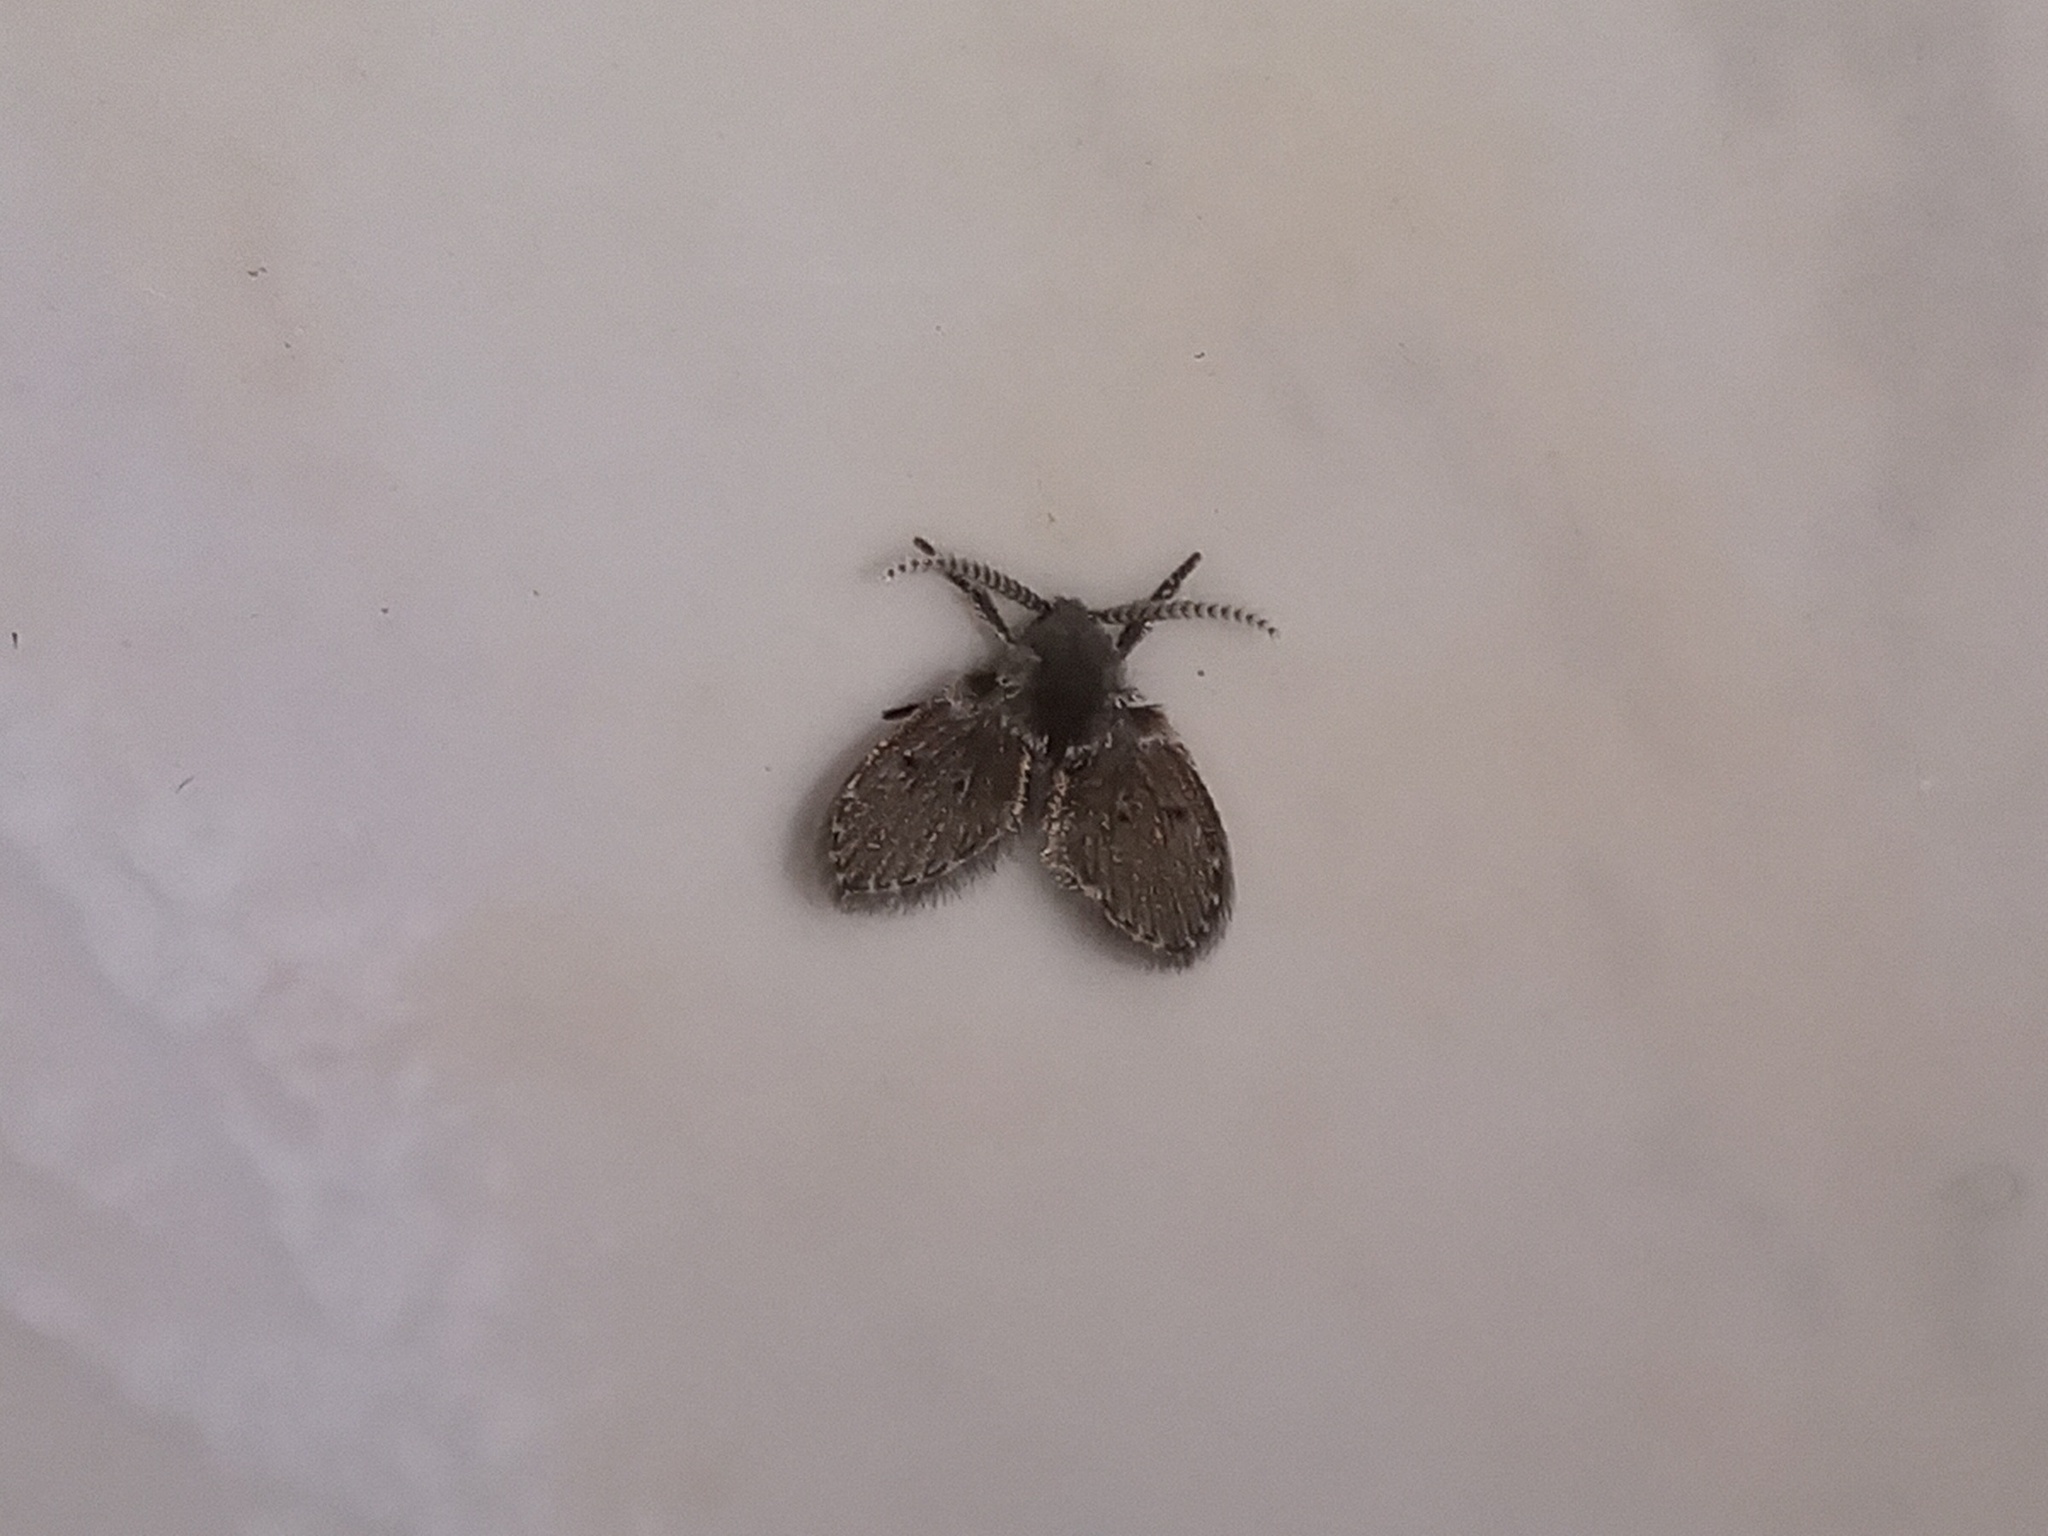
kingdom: Animalia
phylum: Arthropoda
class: Insecta
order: Diptera
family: Psychodidae
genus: Clogmia
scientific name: Clogmia albipunctatus
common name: White-spotted moth fly
